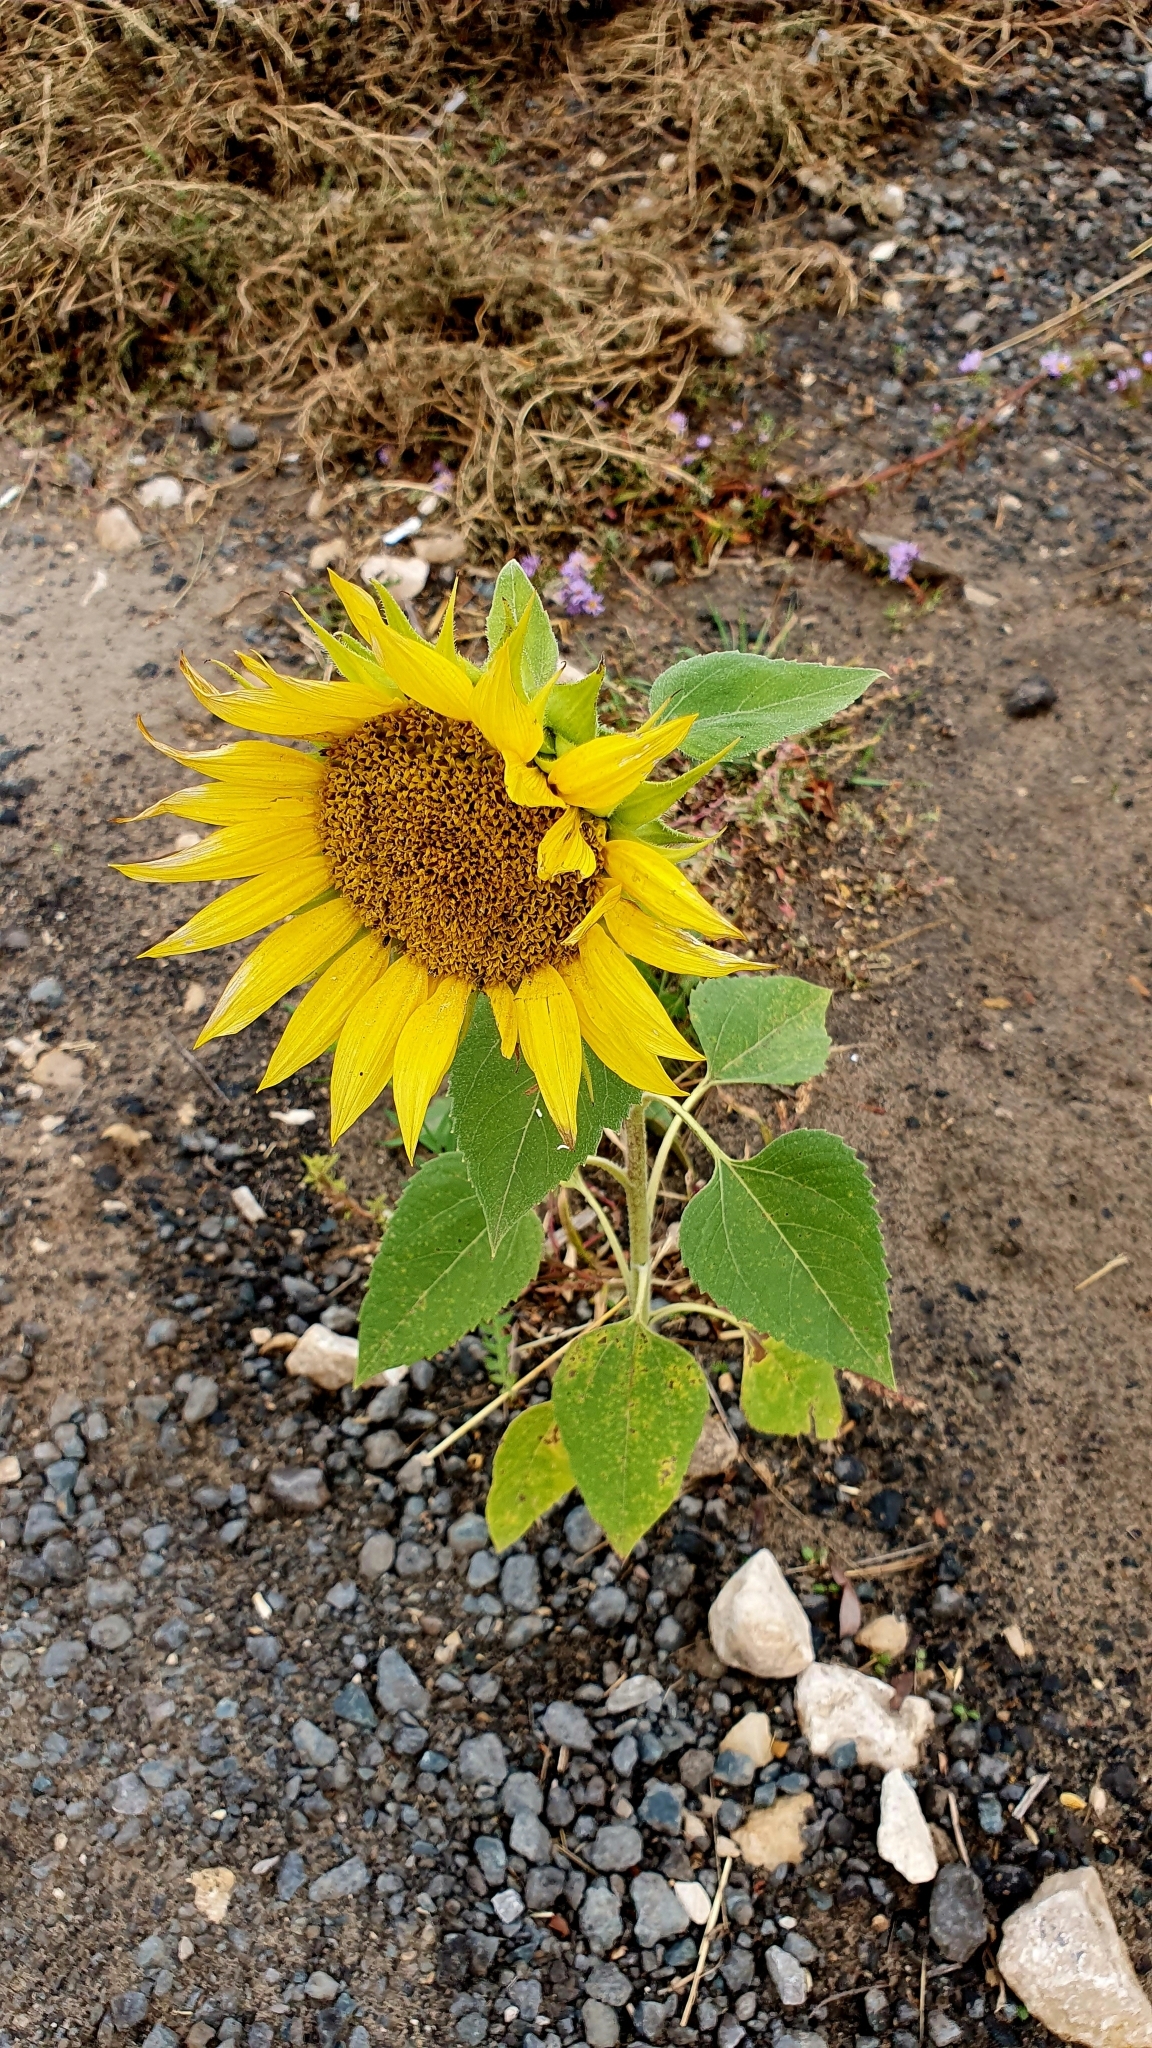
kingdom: Plantae
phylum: Tracheophyta
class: Magnoliopsida
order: Asterales
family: Asteraceae
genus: Helianthus
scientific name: Helianthus annuus
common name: Sunflower
